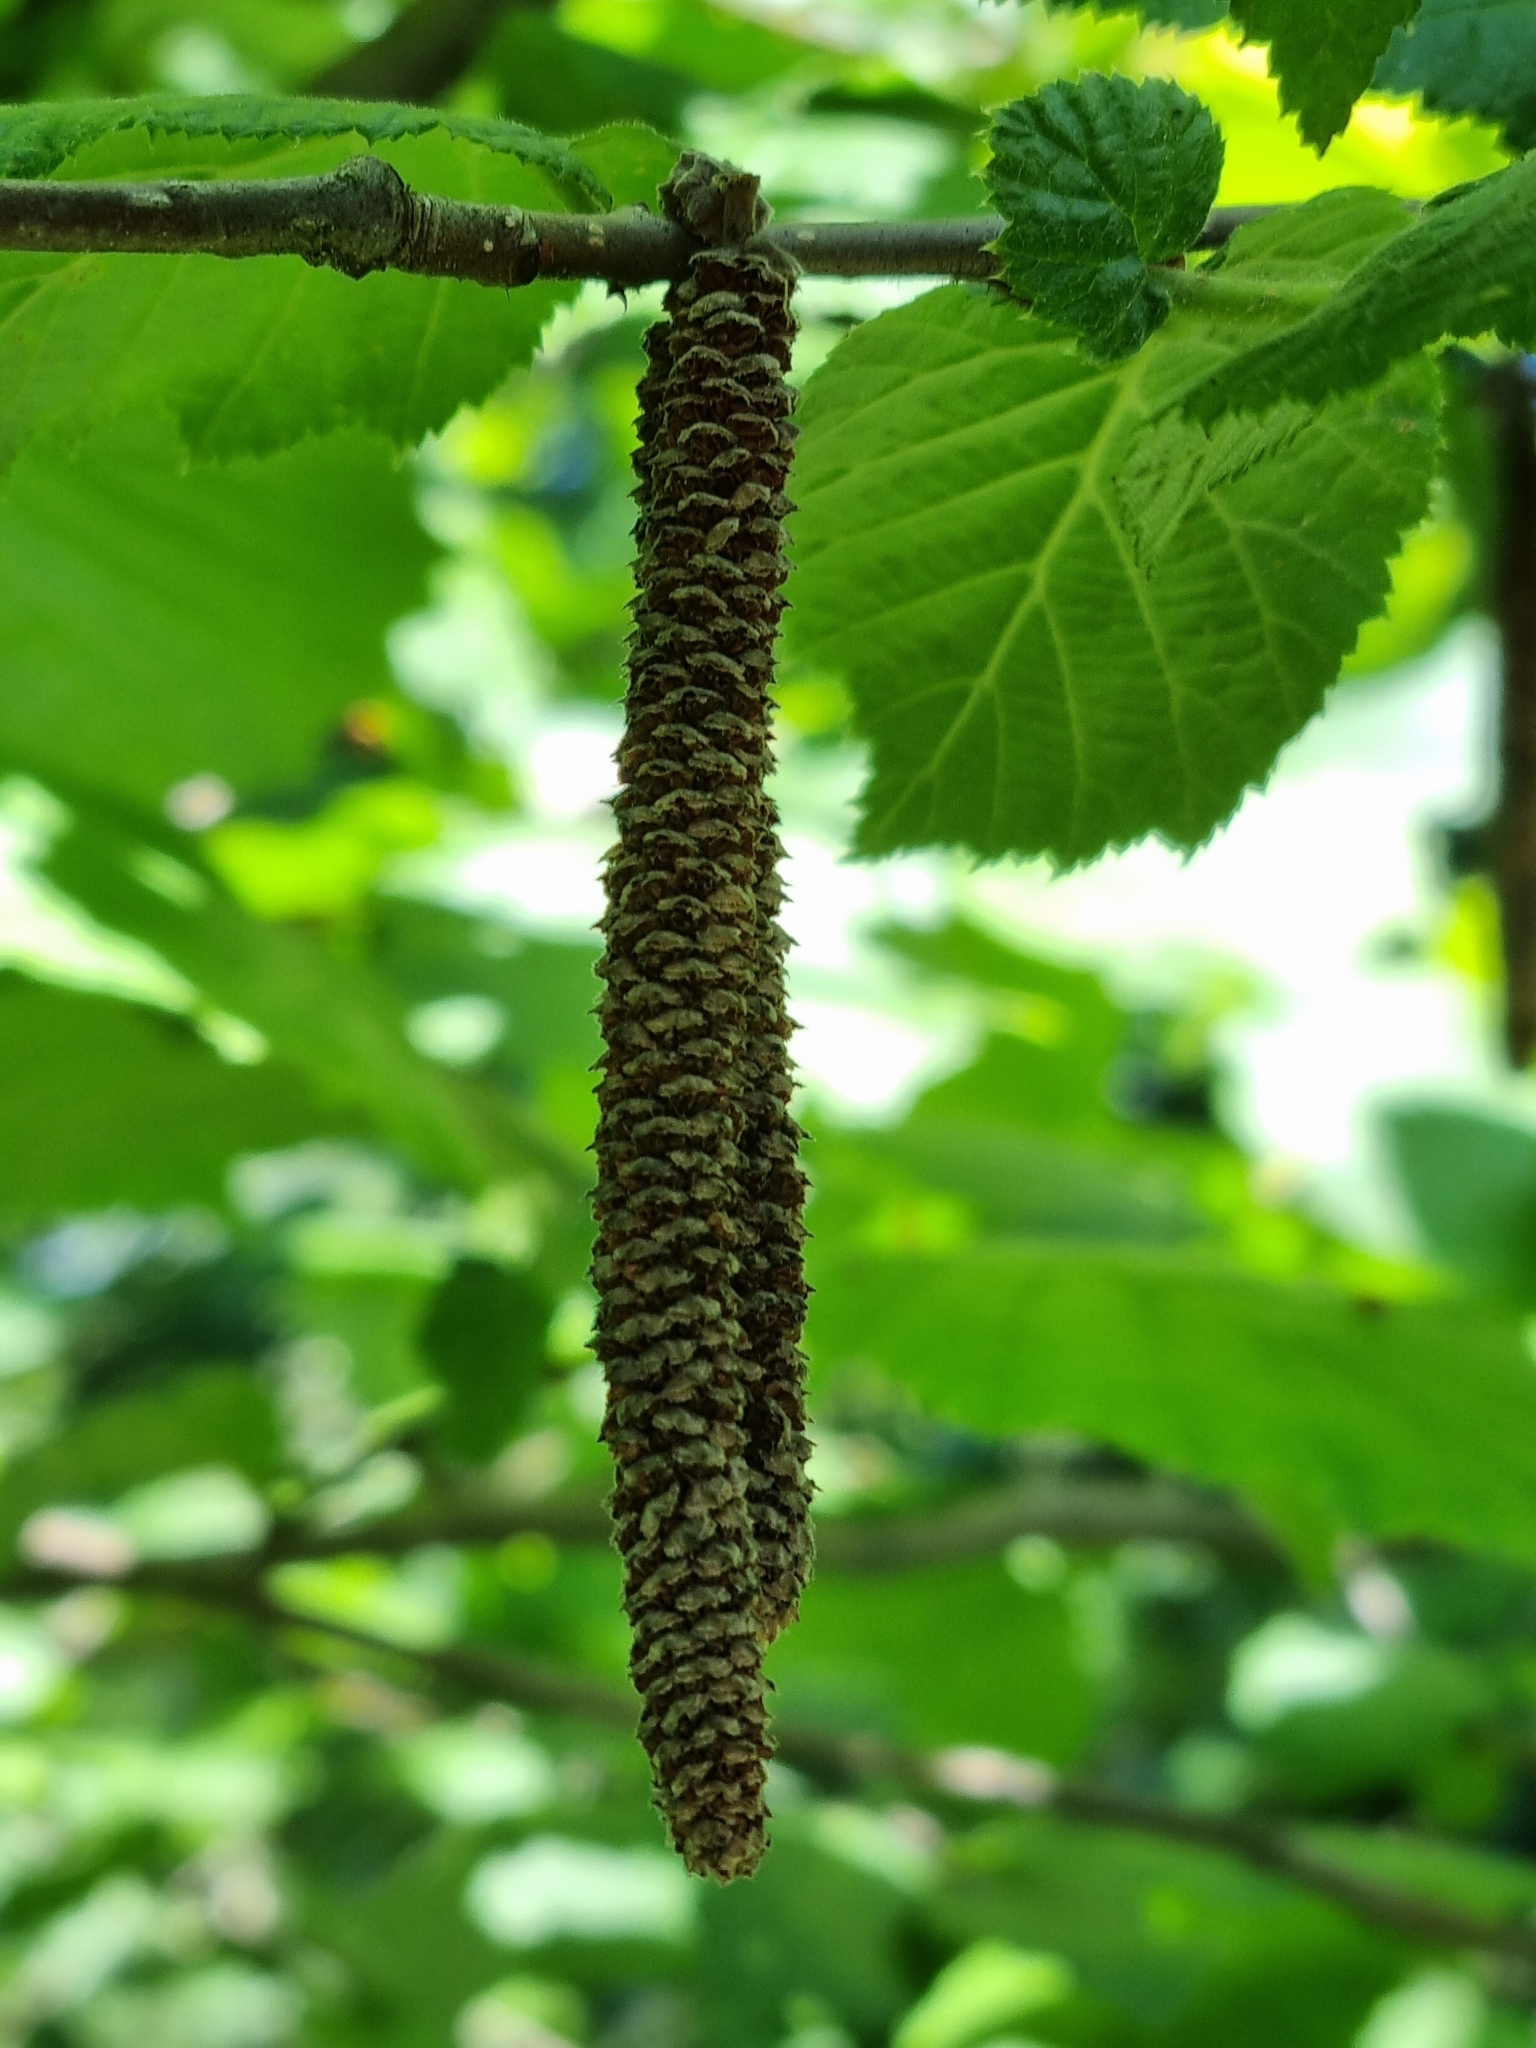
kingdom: Plantae
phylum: Tracheophyta
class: Magnoliopsida
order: Fagales
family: Betulaceae
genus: Corylus
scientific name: Corylus avellana
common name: European hazel
